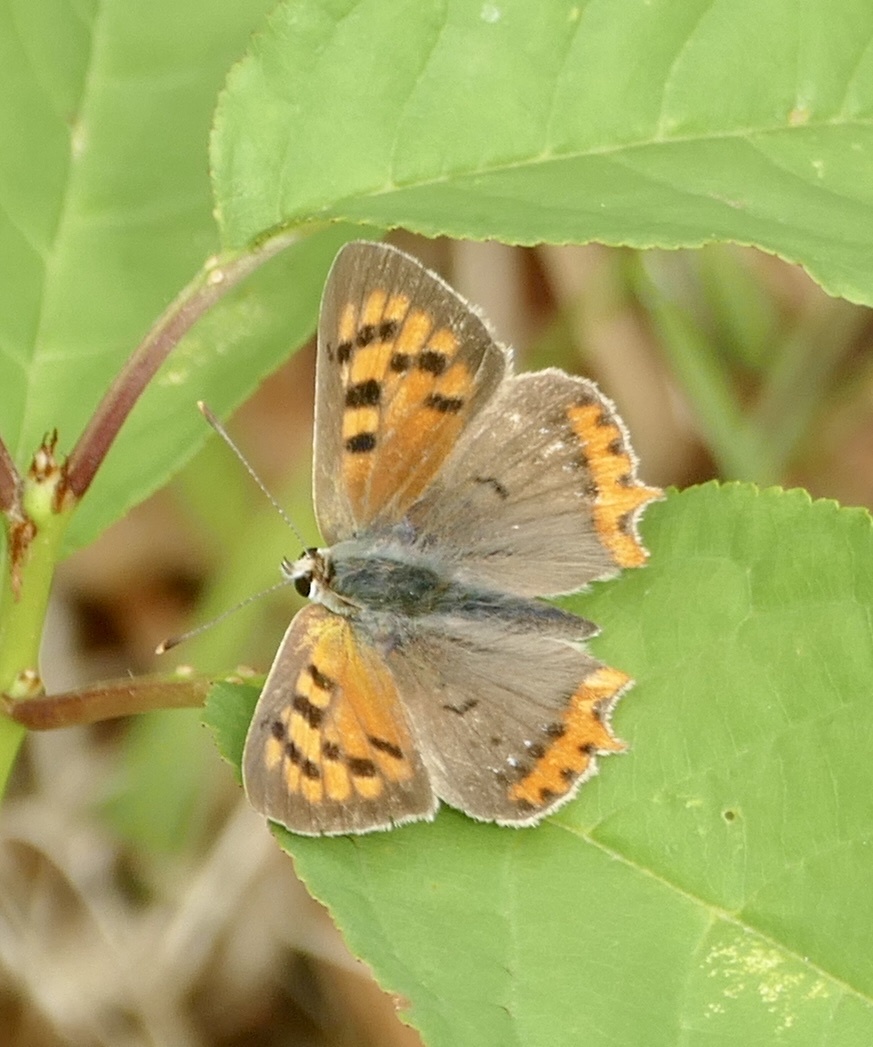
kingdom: Animalia
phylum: Arthropoda
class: Insecta
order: Lepidoptera
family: Lycaenidae
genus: Lycaena
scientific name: Lycaena phlaeas
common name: Small copper
